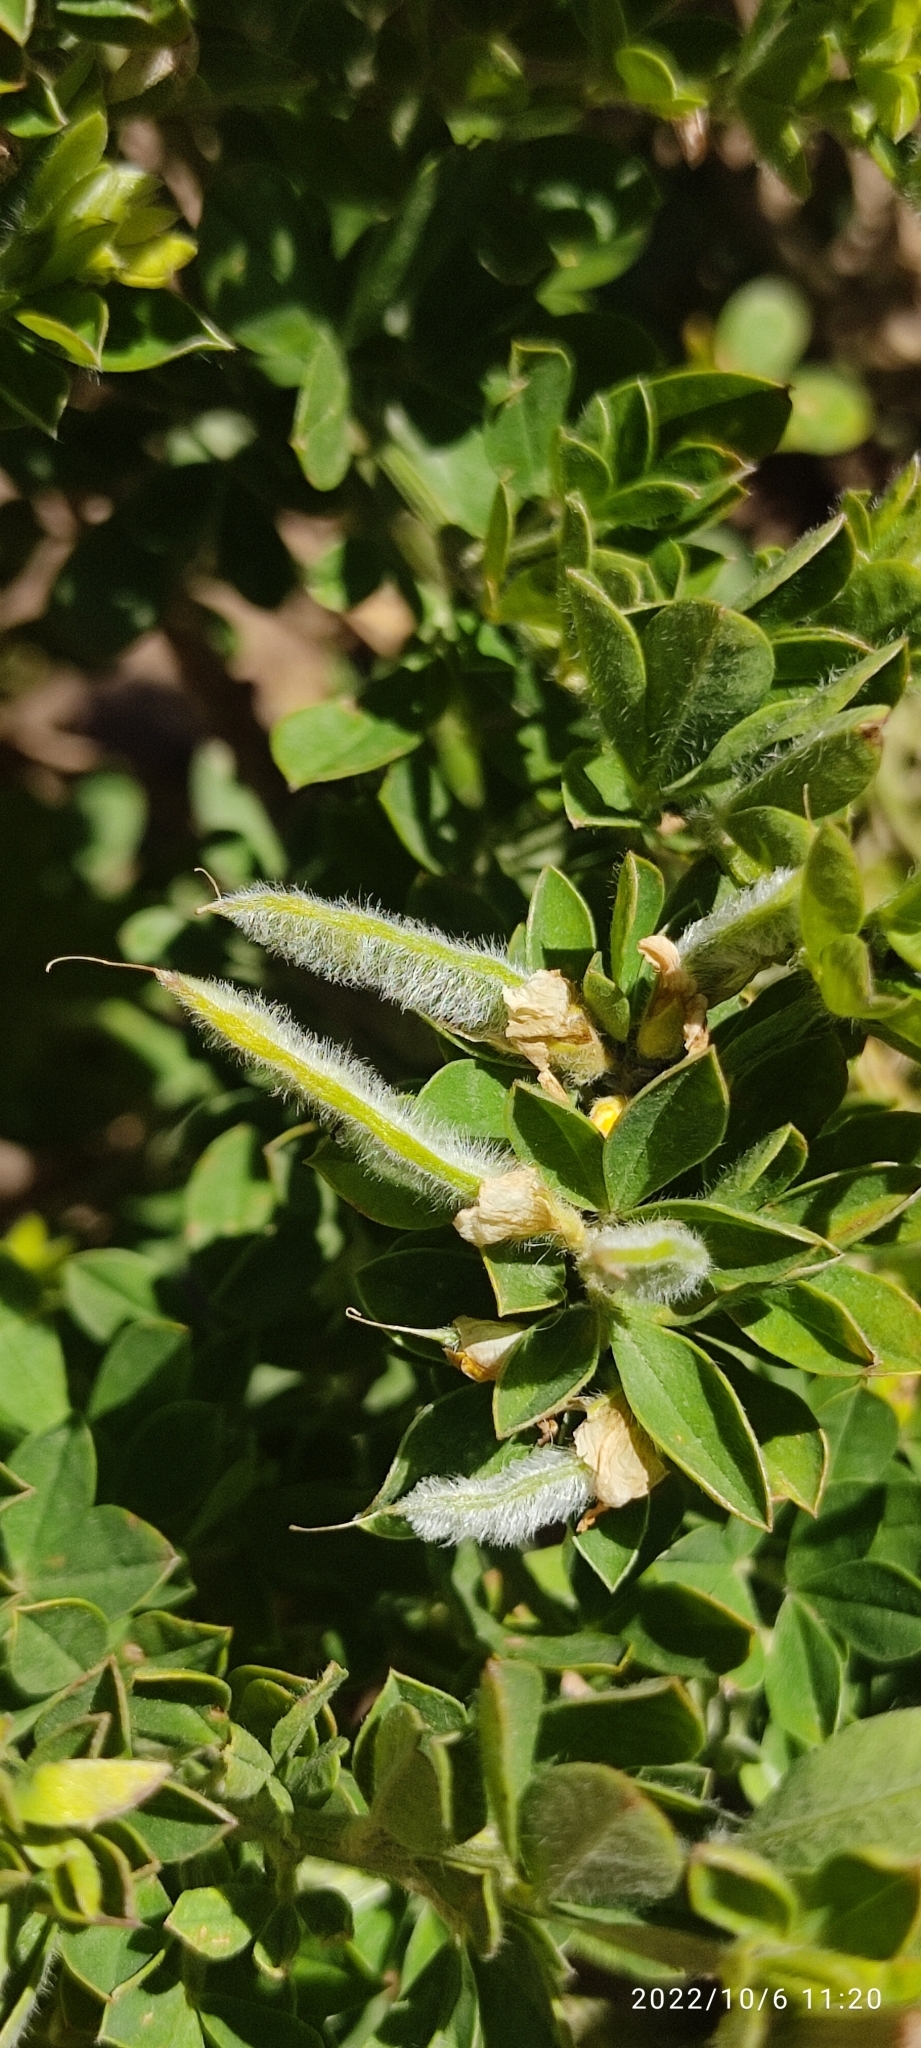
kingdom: Plantae
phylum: Tracheophyta
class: Magnoliopsida
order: Fabales
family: Fabaceae
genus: Genista
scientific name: Genista monspessulana
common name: Montpellier broom
